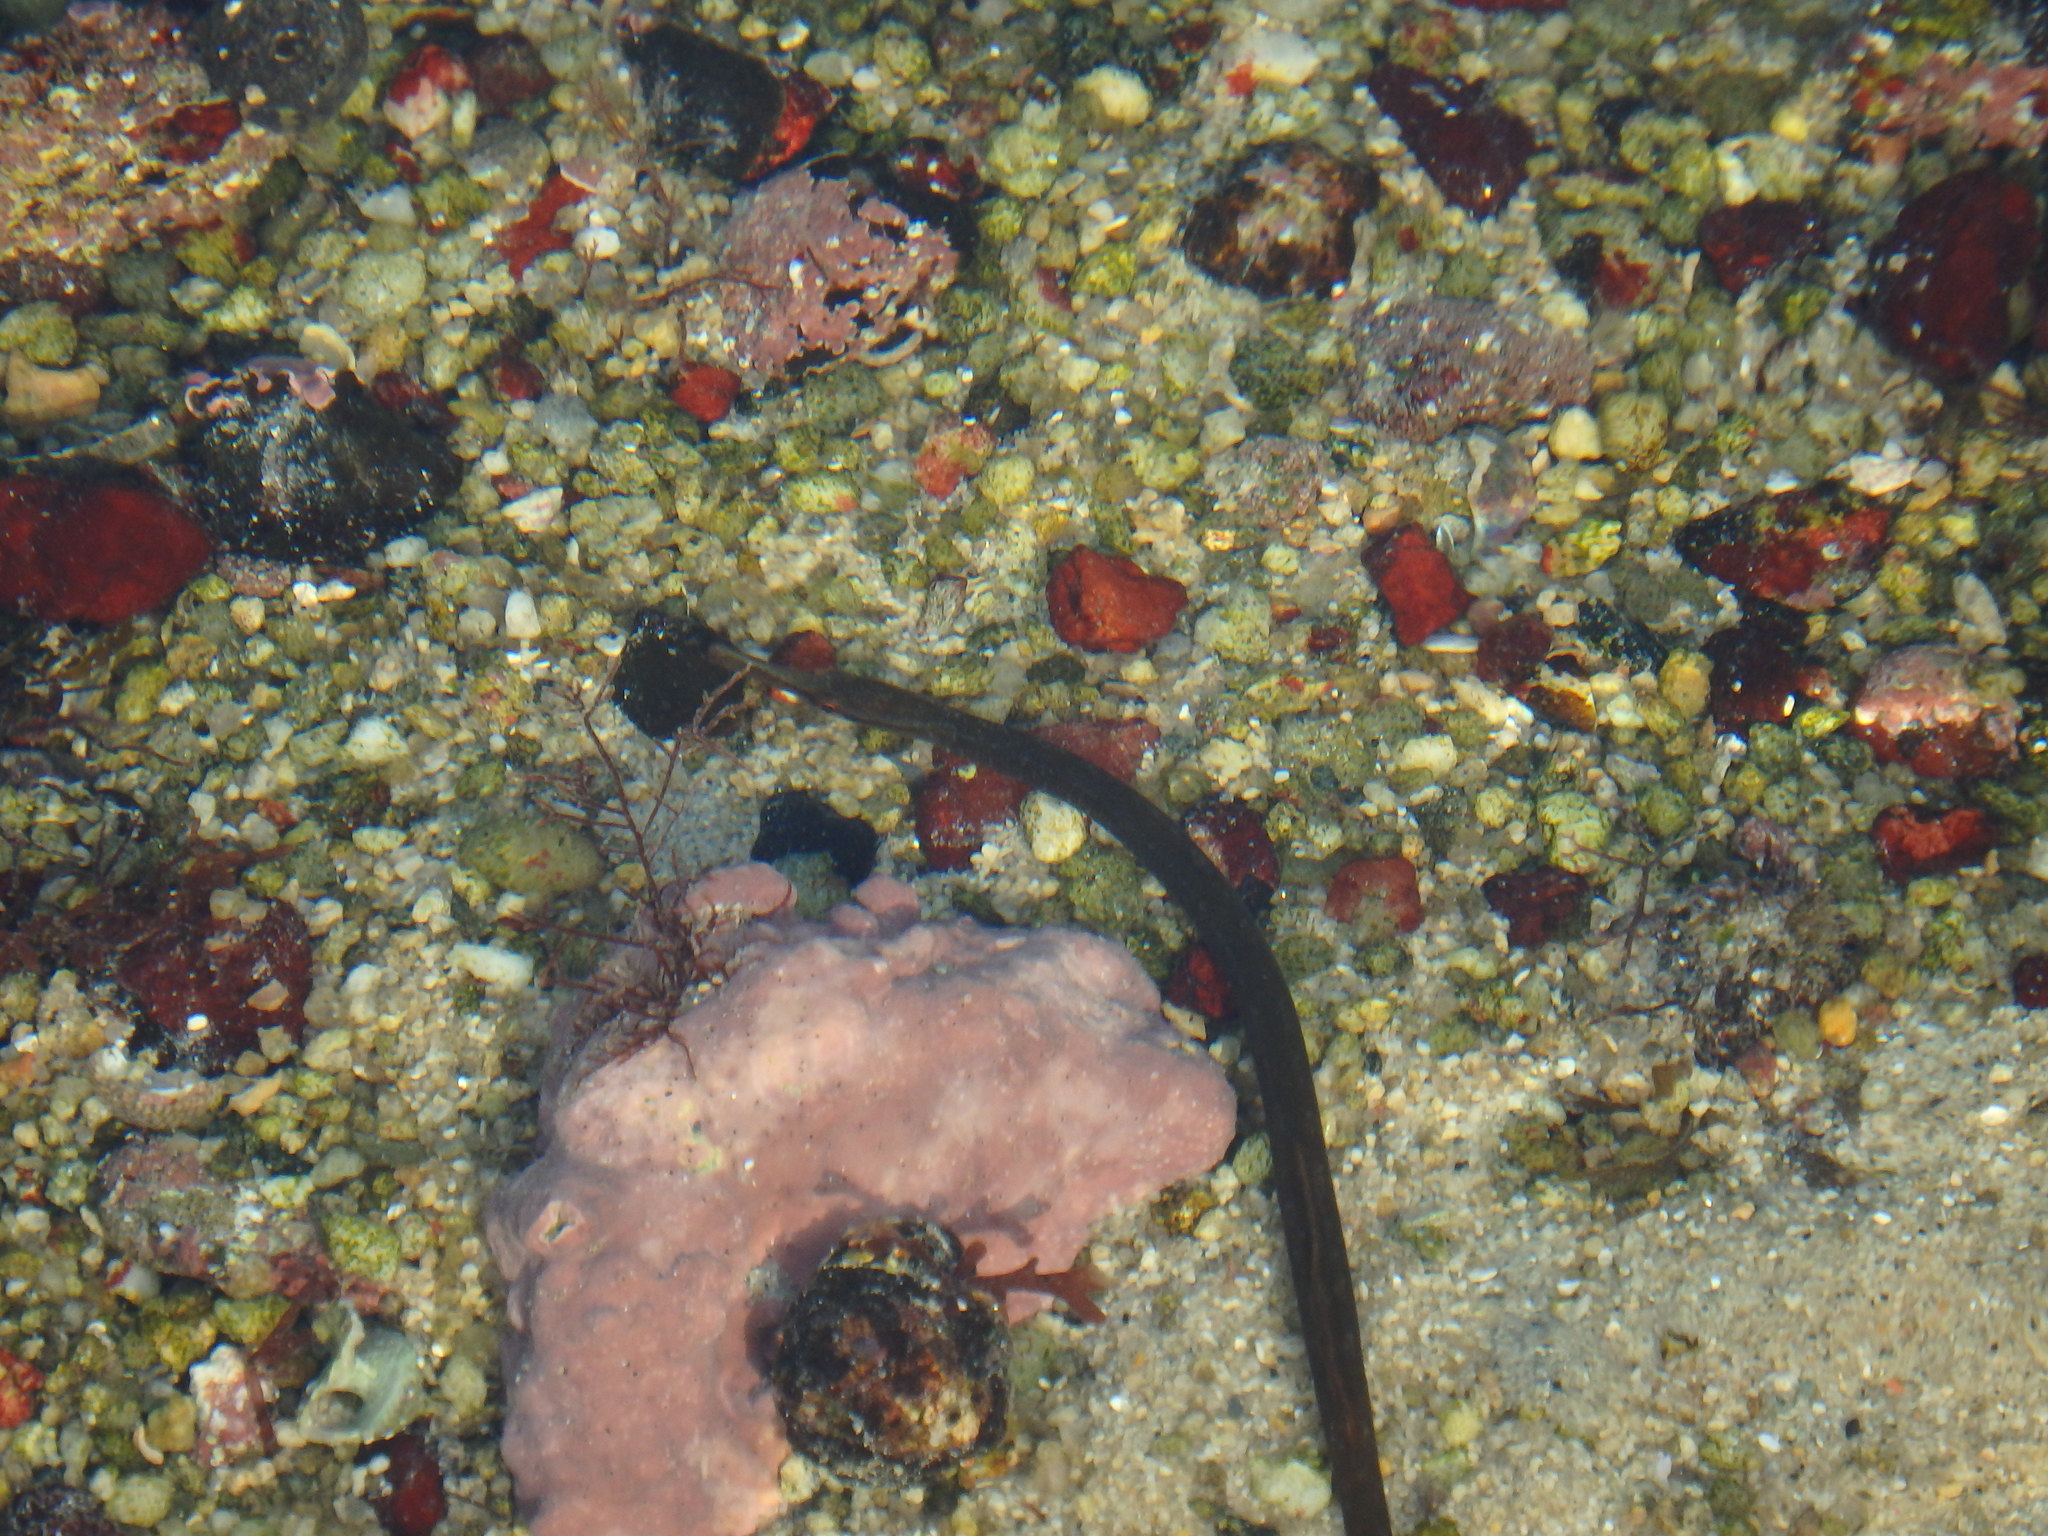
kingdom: Animalia
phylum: Chordata
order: Syngnathiformes
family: Syngnathidae
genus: Entelurus
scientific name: Entelurus aequoreus
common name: Snake pipefish
